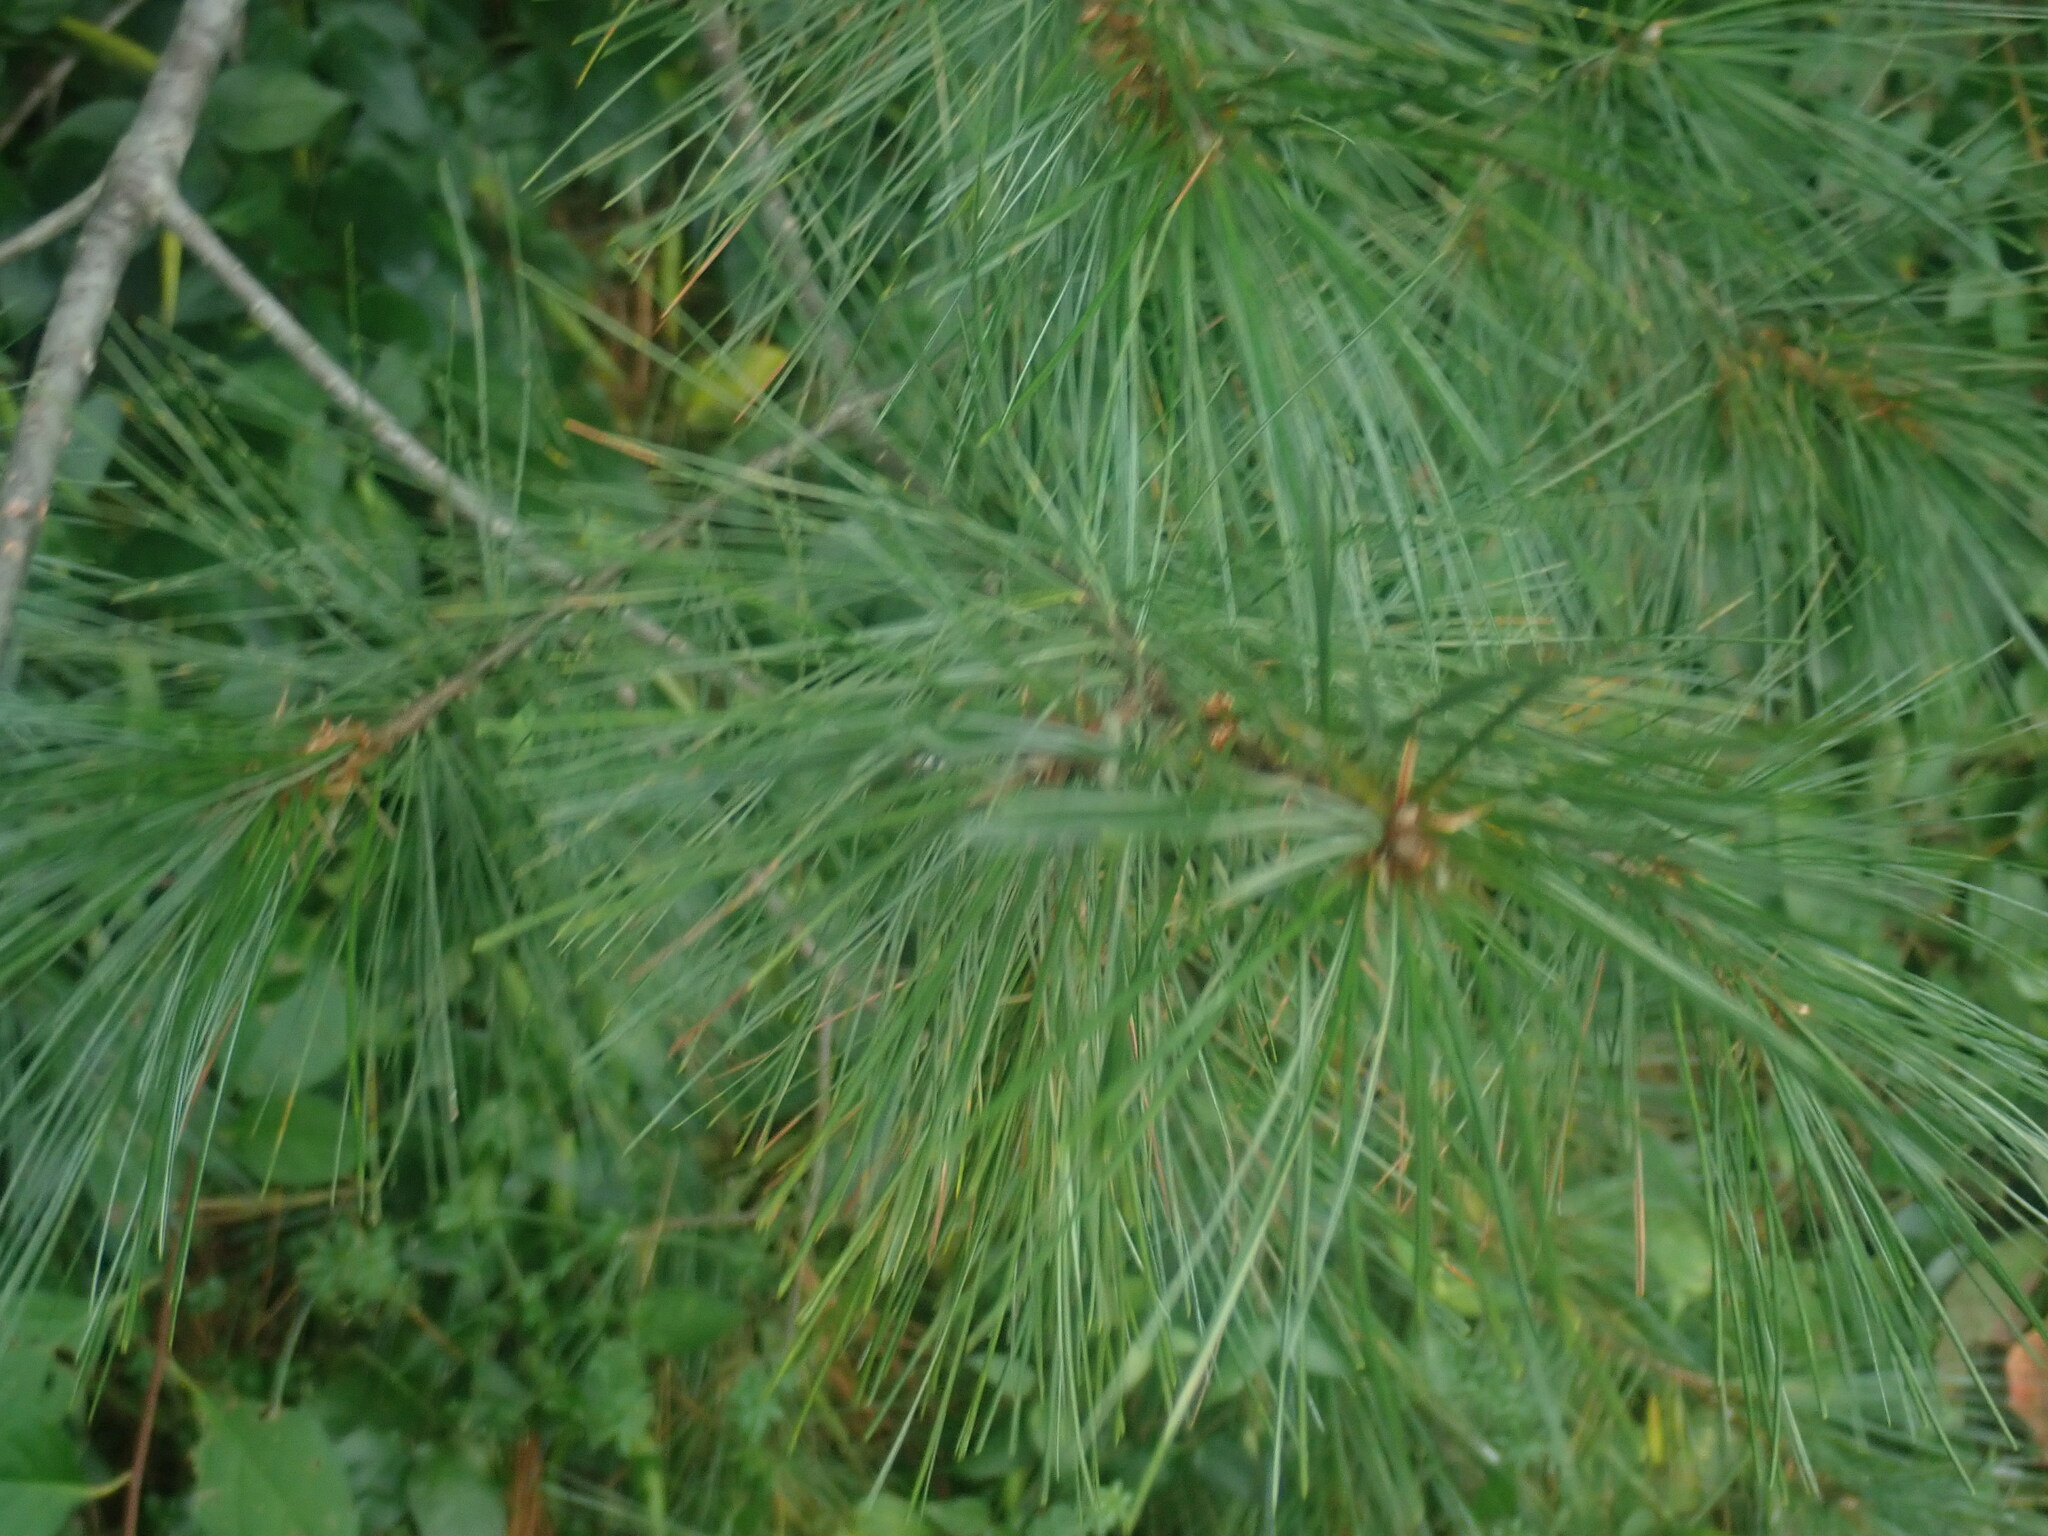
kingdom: Plantae
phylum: Tracheophyta
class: Pinopsida
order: Pinales
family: Pinaceae
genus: Pinus
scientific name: Pinus strobus
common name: Weymouth pine
